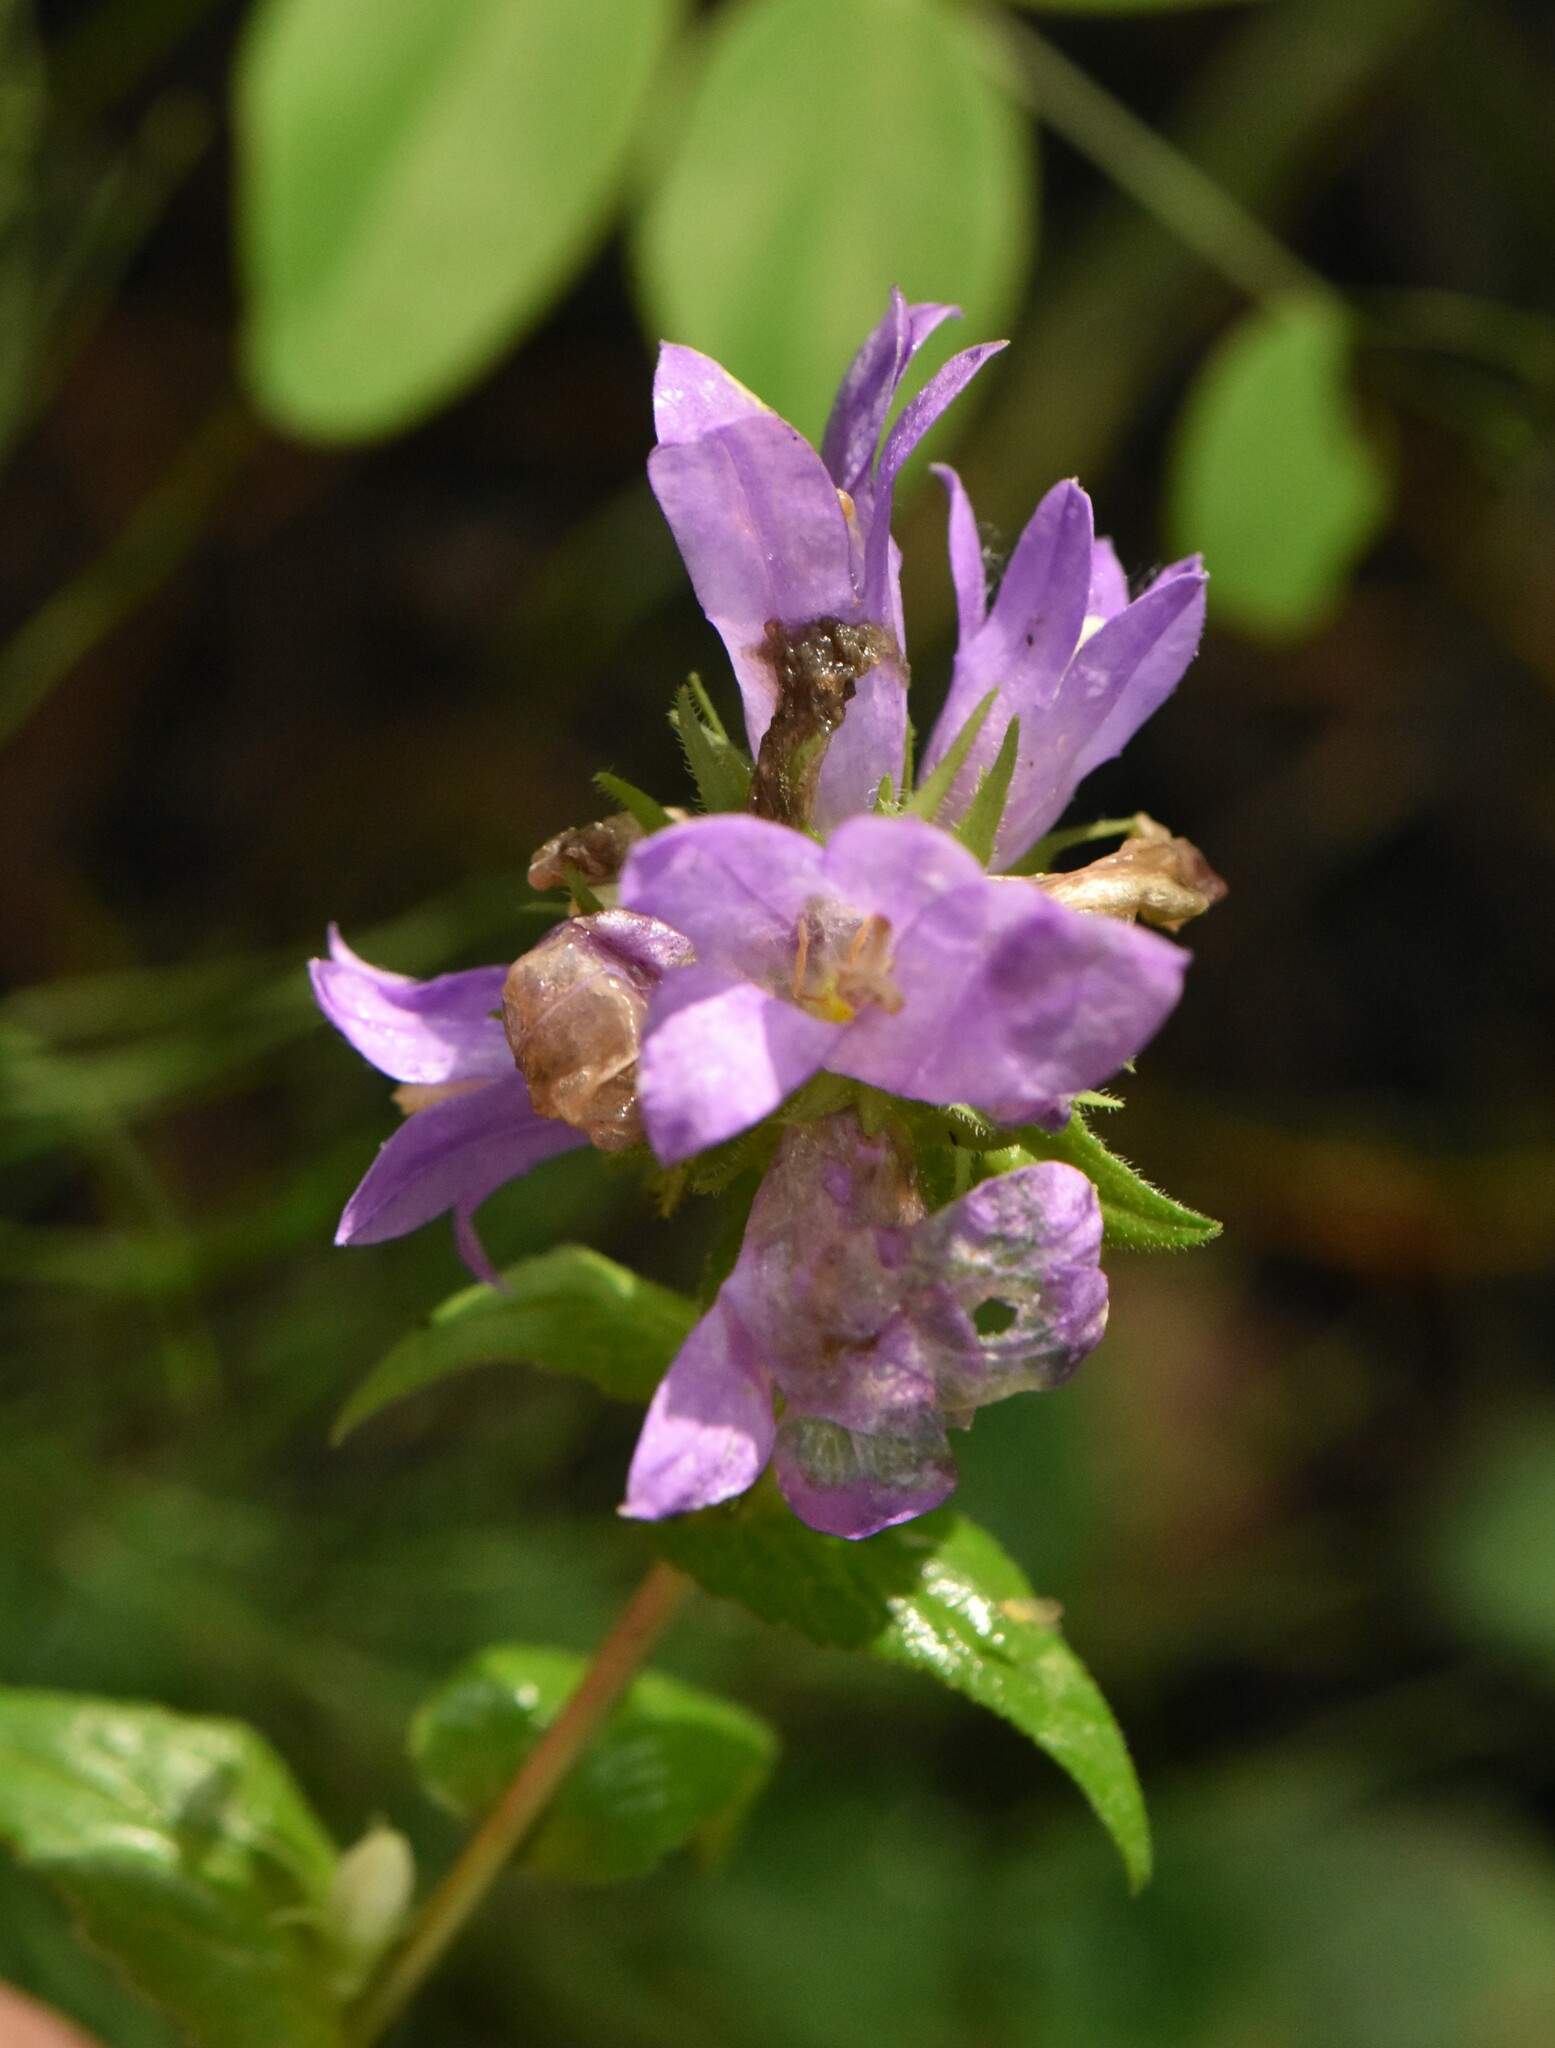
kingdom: Plantae
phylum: Tracheophyta
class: Magnoliopsida
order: Asterales
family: Campanulaceae
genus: Campanula
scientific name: Campanula glomerata
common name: Clustered bellflower
